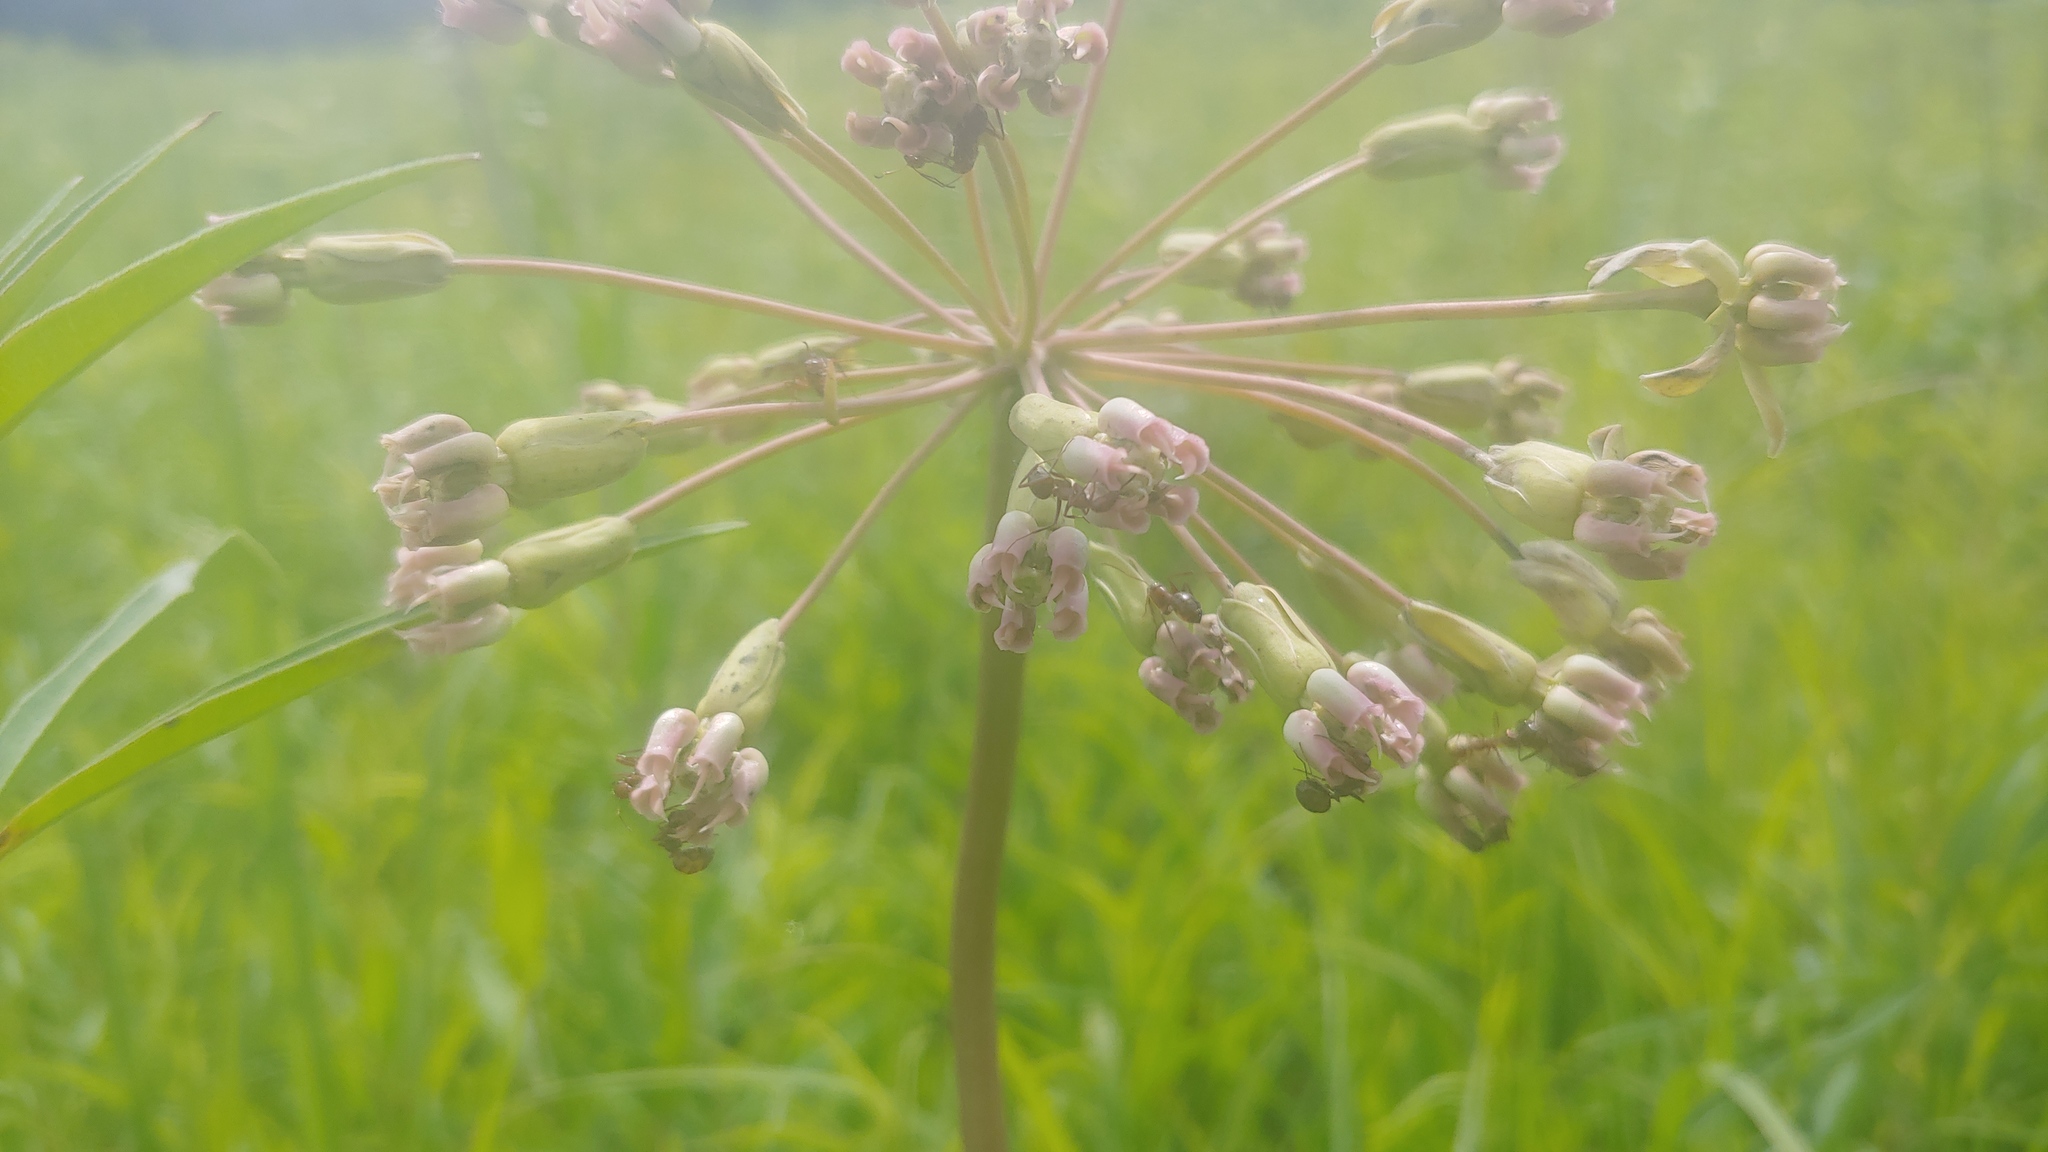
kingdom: Plantae
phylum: Tracheophyta
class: Magnoliopsida
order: Gentianales
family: Apocynaceae
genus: Asclepias
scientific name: Asclepias amplexicaulis
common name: Blunt-leaf milkweed
